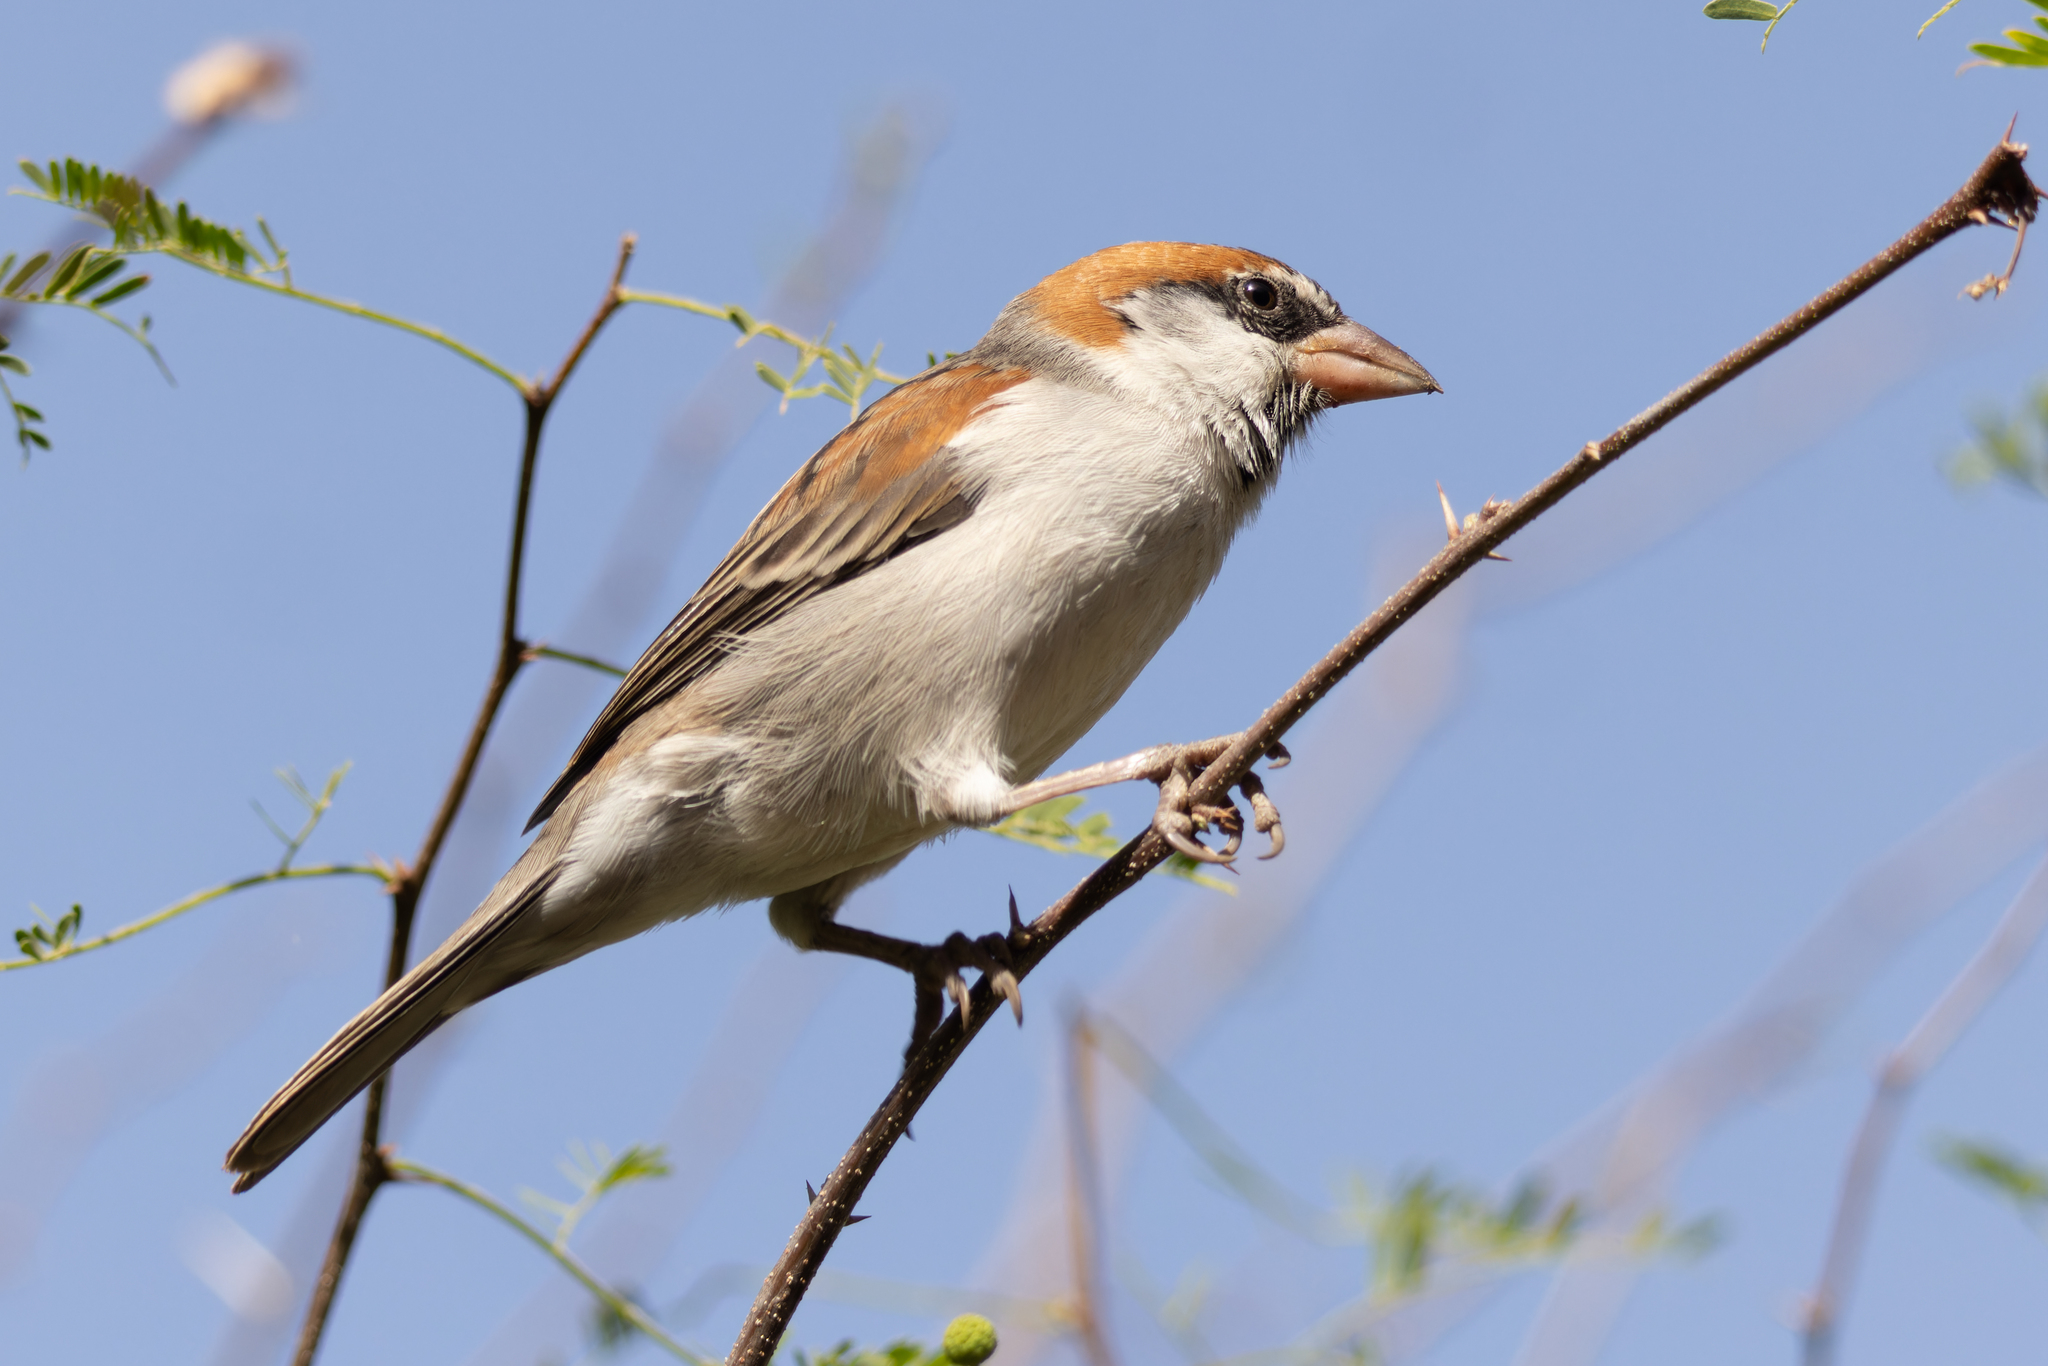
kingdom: Animalia
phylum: Chordata
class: Aves
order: Passeriformes
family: Passeridae
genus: Passer
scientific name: Passer iagoensis
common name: Iago sparrow
